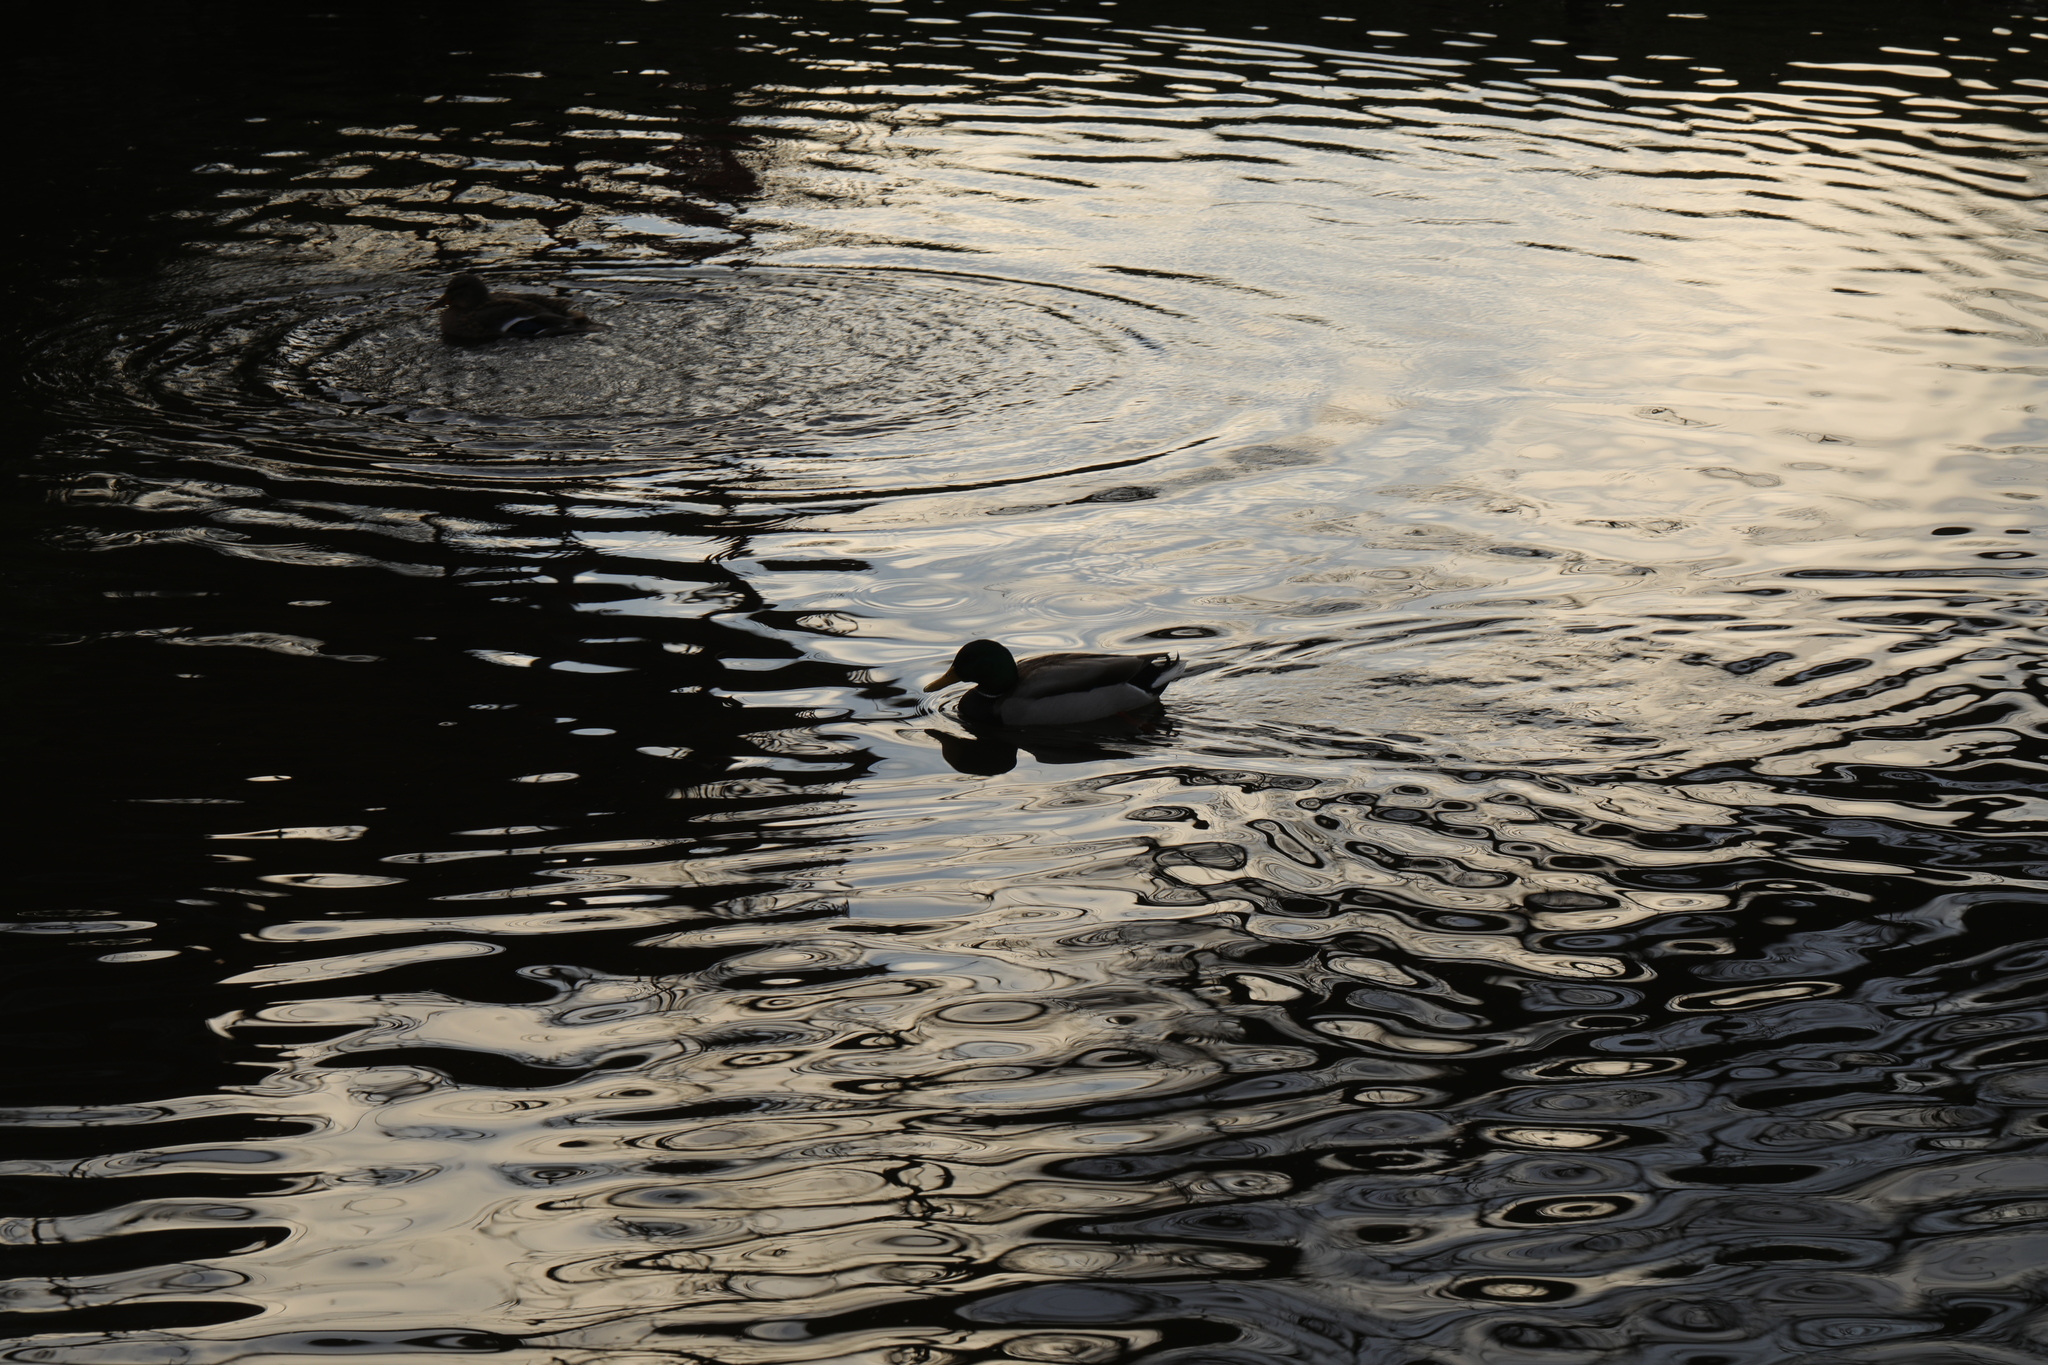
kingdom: Animalia
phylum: Chordata
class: Aves
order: Anseriformes
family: Anatidae
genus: Anas
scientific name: Anas platyrhynchos
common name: Mallard
